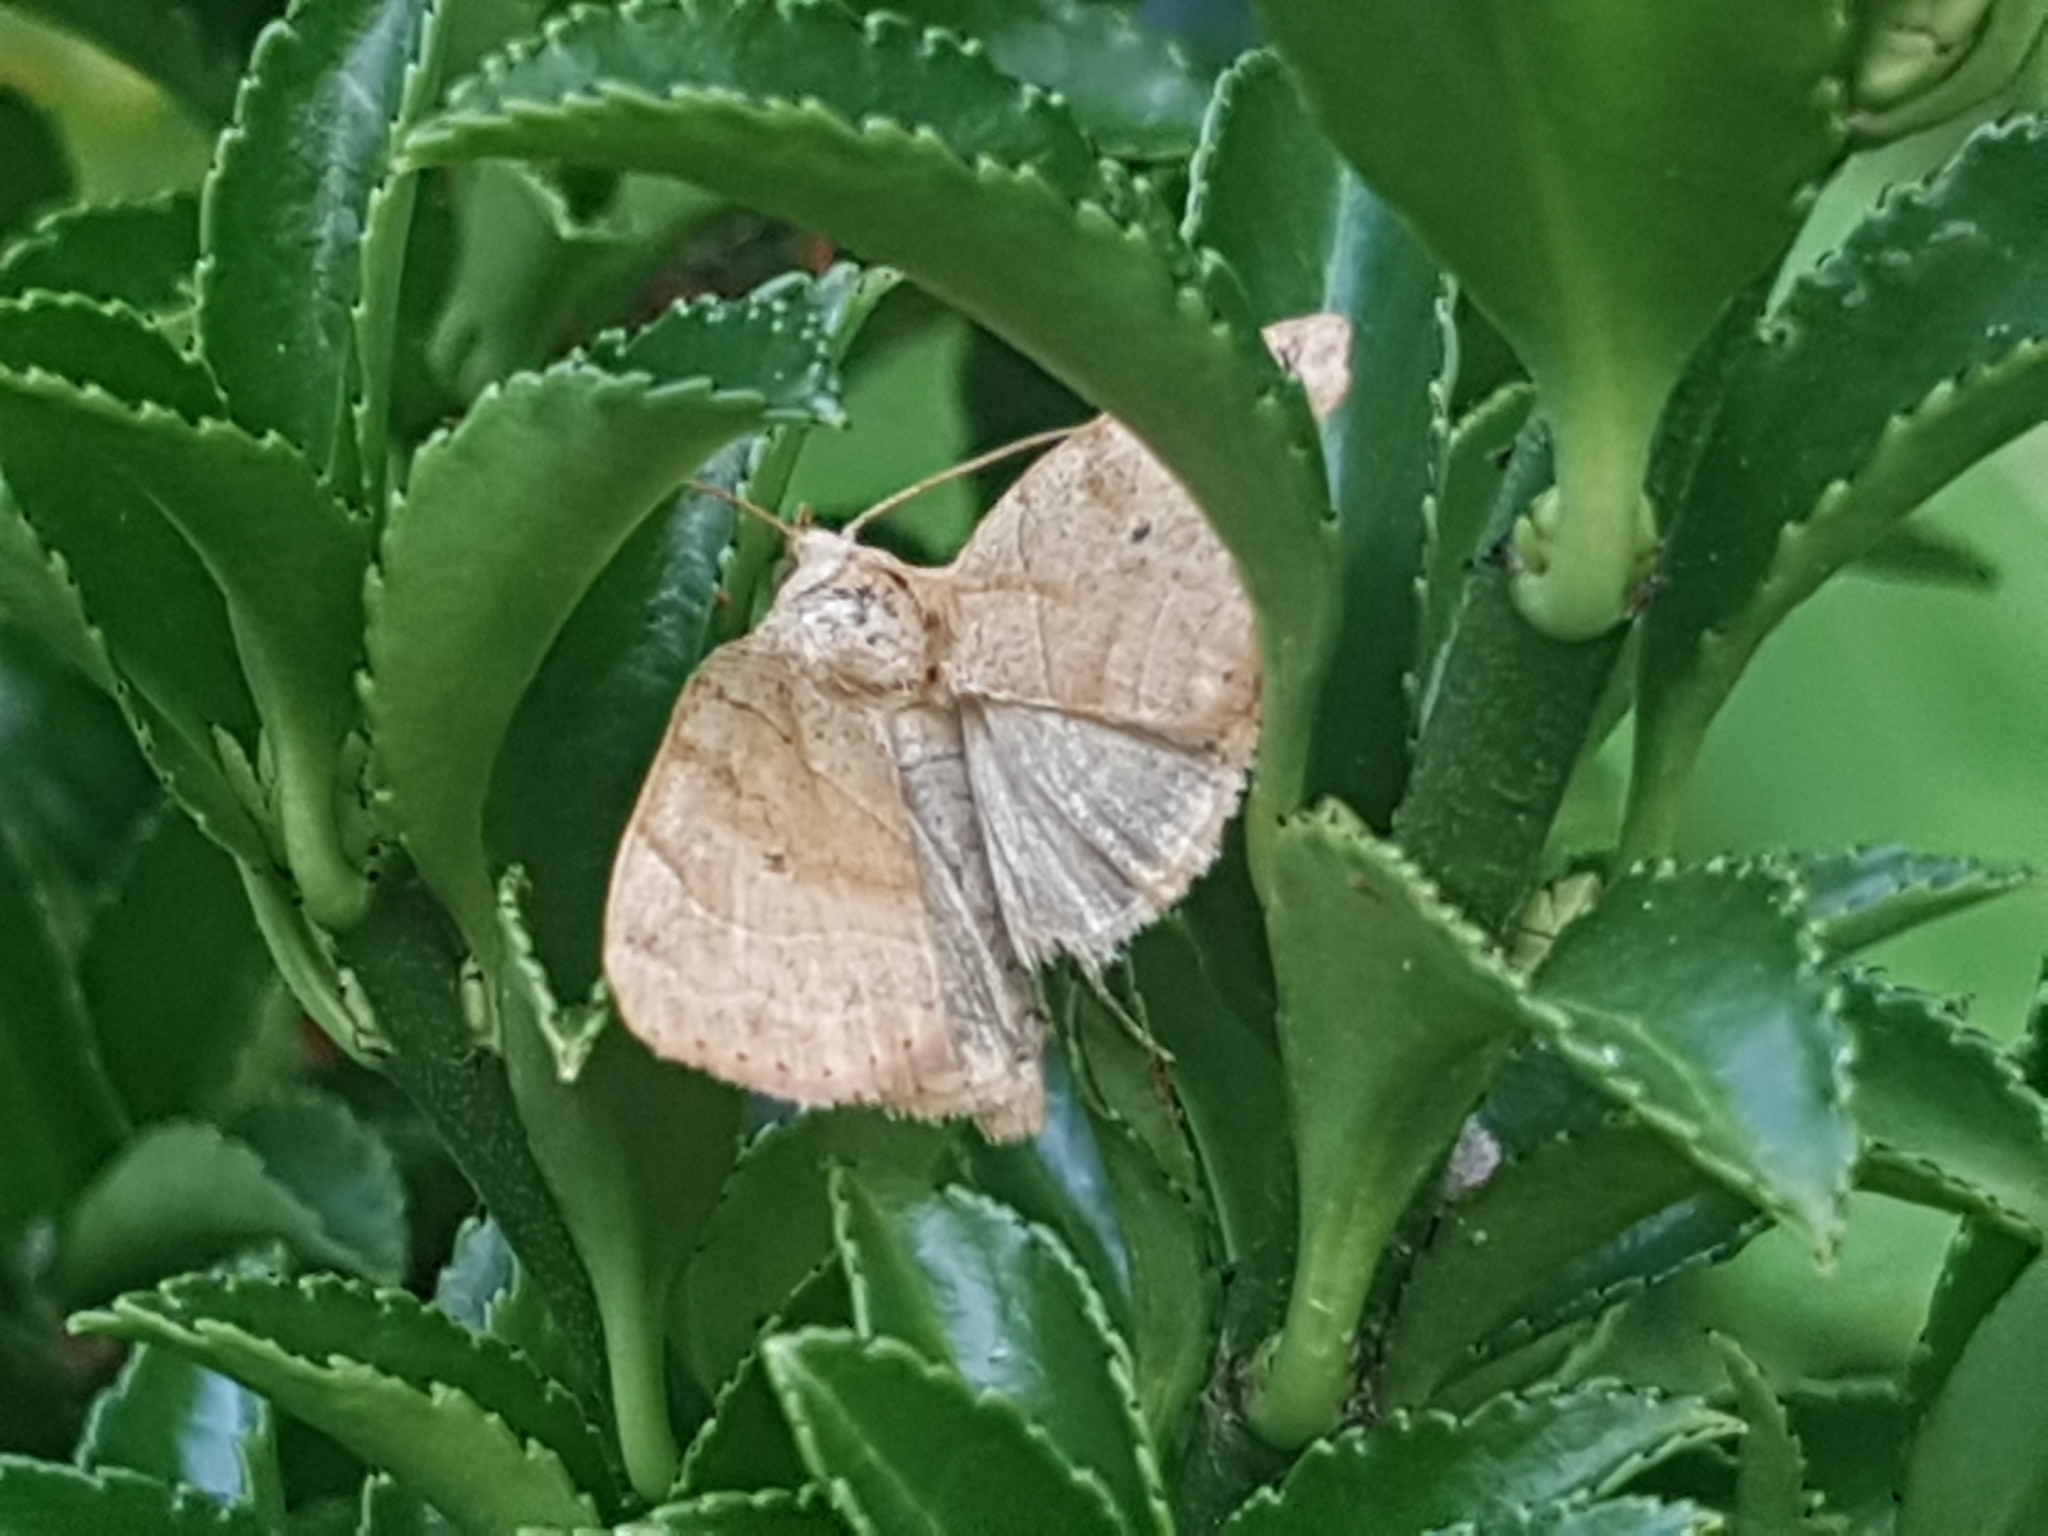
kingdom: Animalia
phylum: Arthropoda
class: Insecta
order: Lepidoptera
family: Noctuidae
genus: Cosmia
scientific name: Cosmia trapezina
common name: Dun-bar
